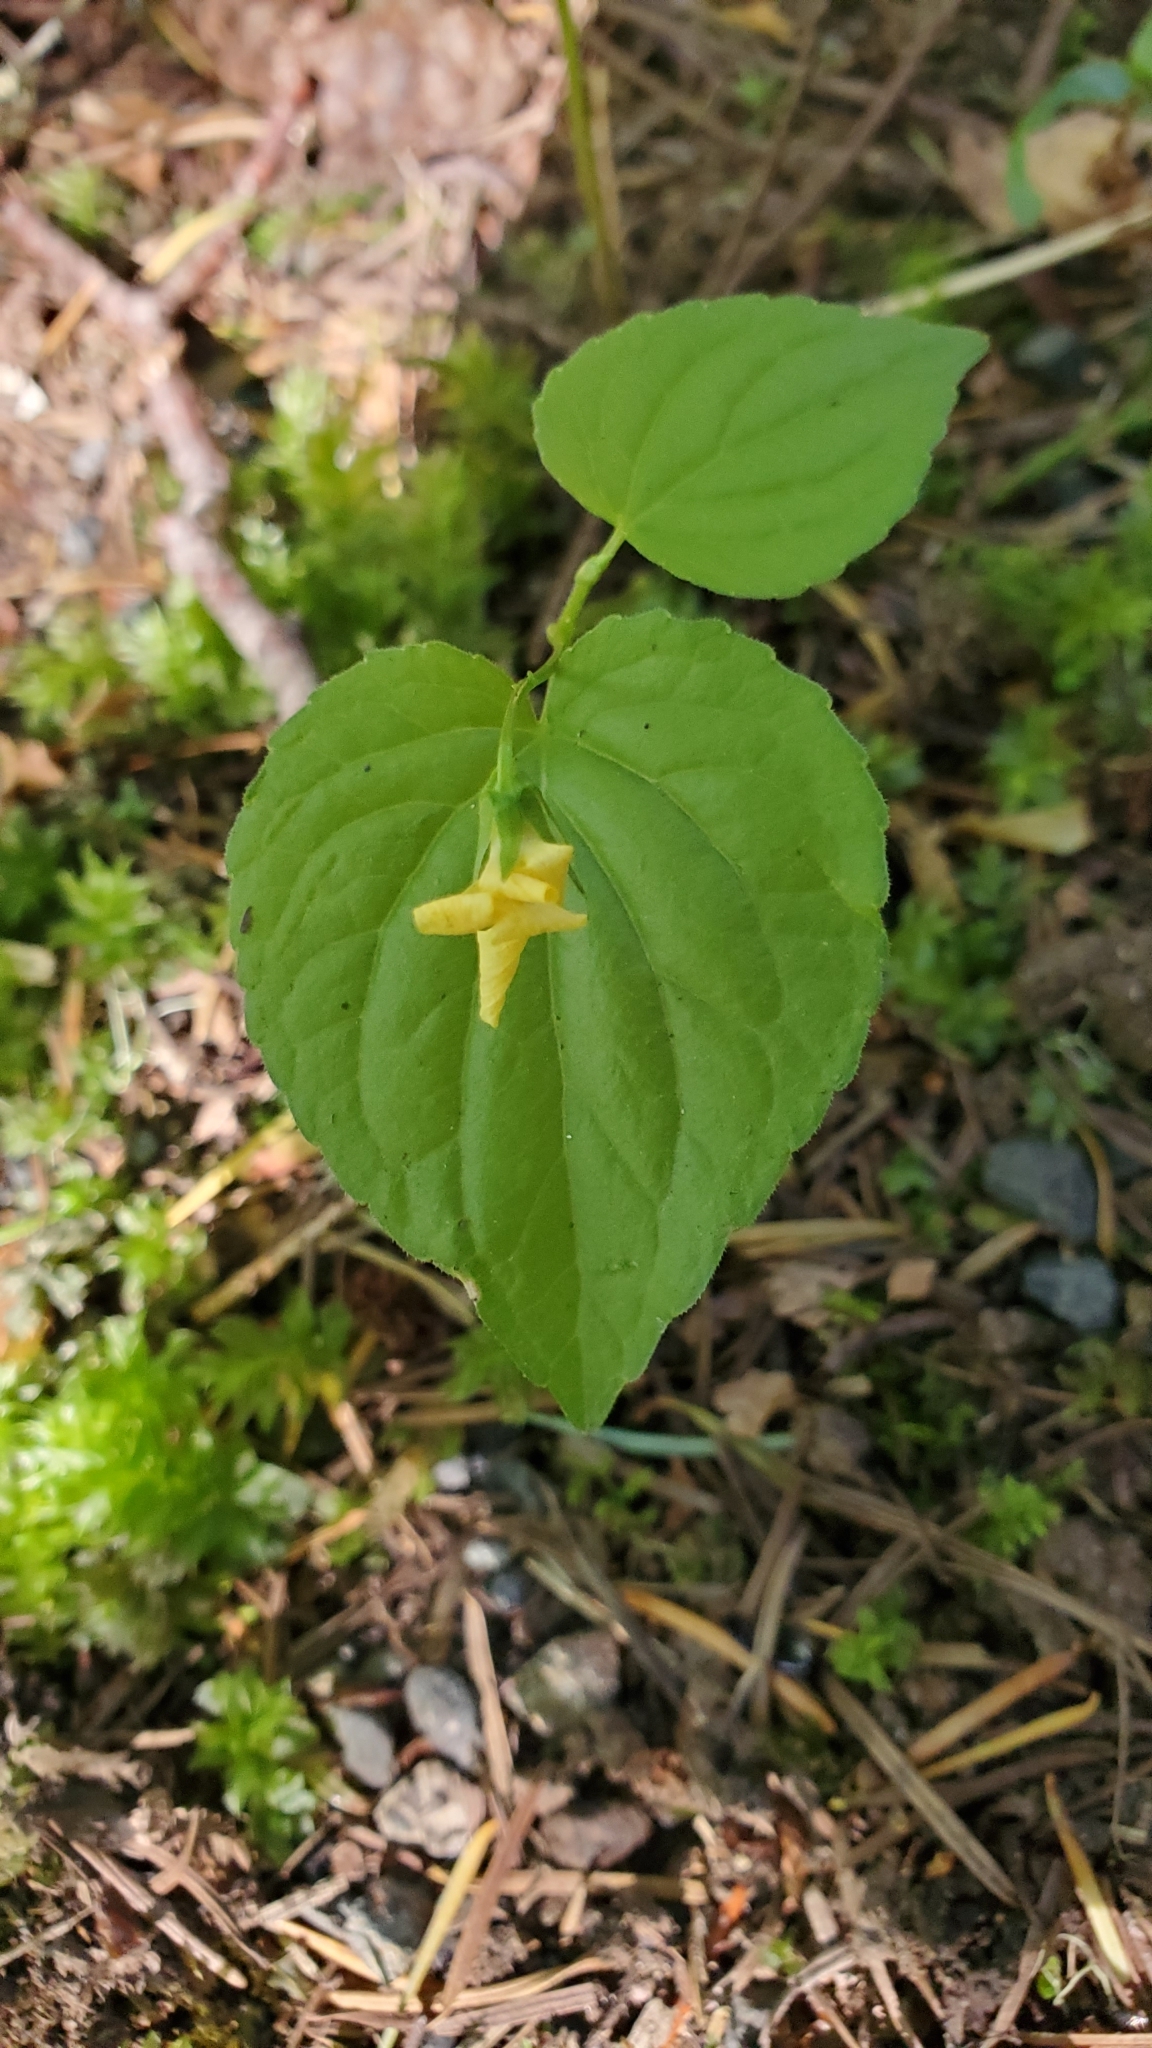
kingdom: Plantae
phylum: Tracheophyta
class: Magnoliopsida
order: Malpighiales
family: Violaceae
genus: Viola
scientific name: Viola glabella
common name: Stream violet
